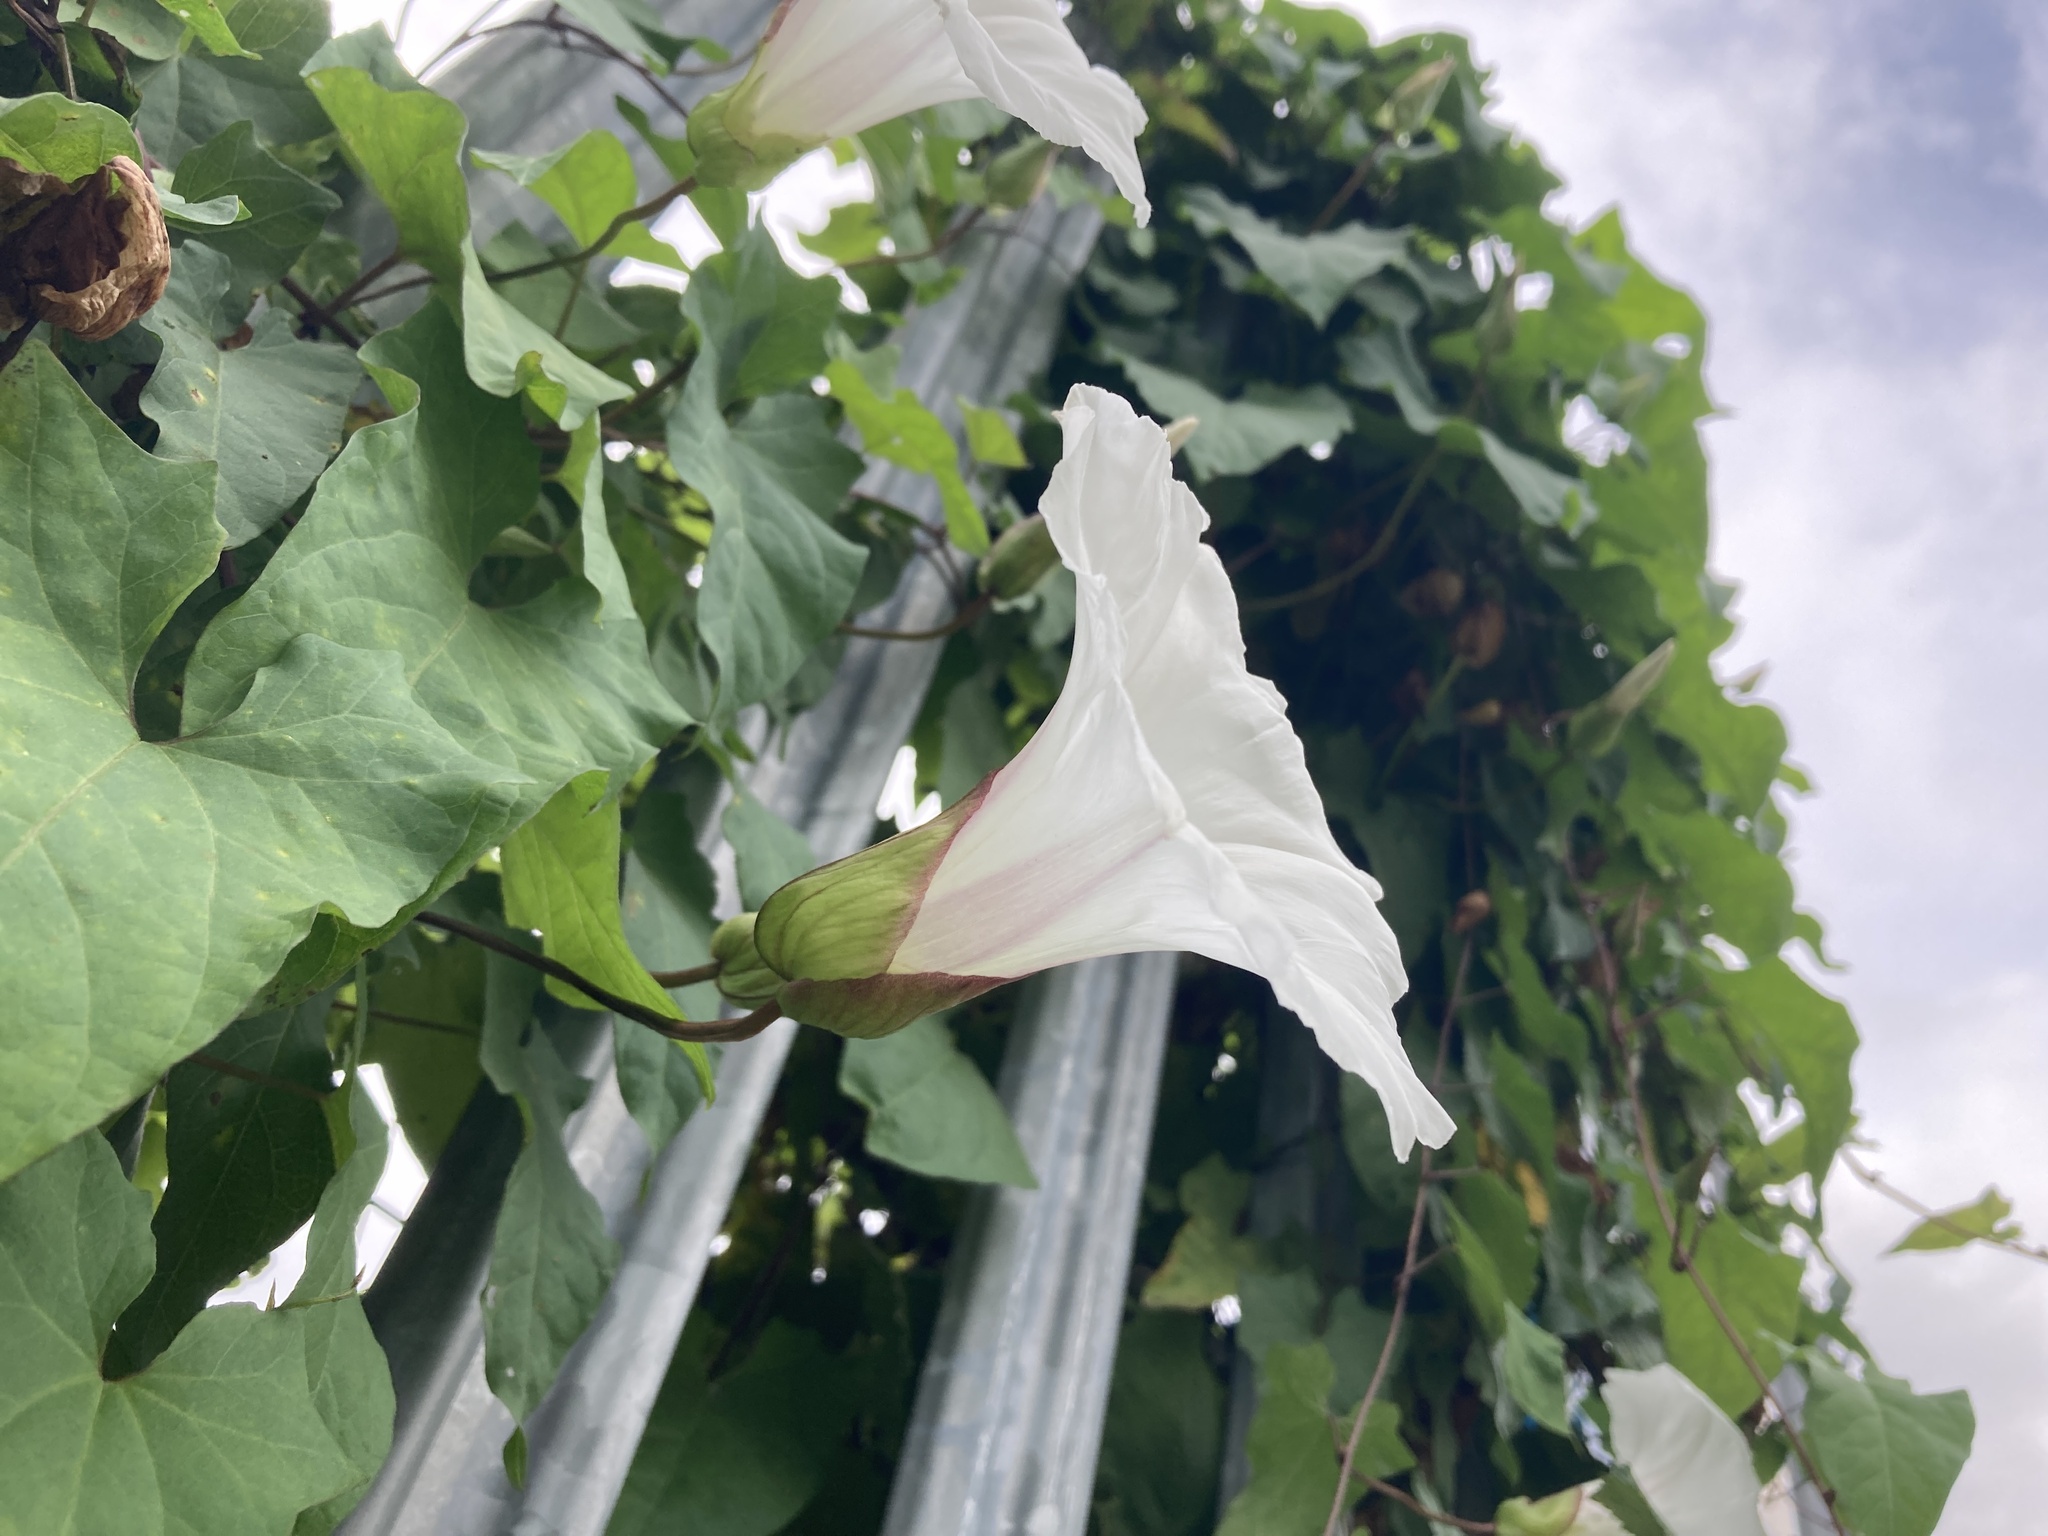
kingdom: Plantae
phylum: Tracheophyta
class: Magnoliopsida
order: Solanales
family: Convolvulaceae
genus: Calystegia
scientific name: Calystegia silvatica
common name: Large bindweed
